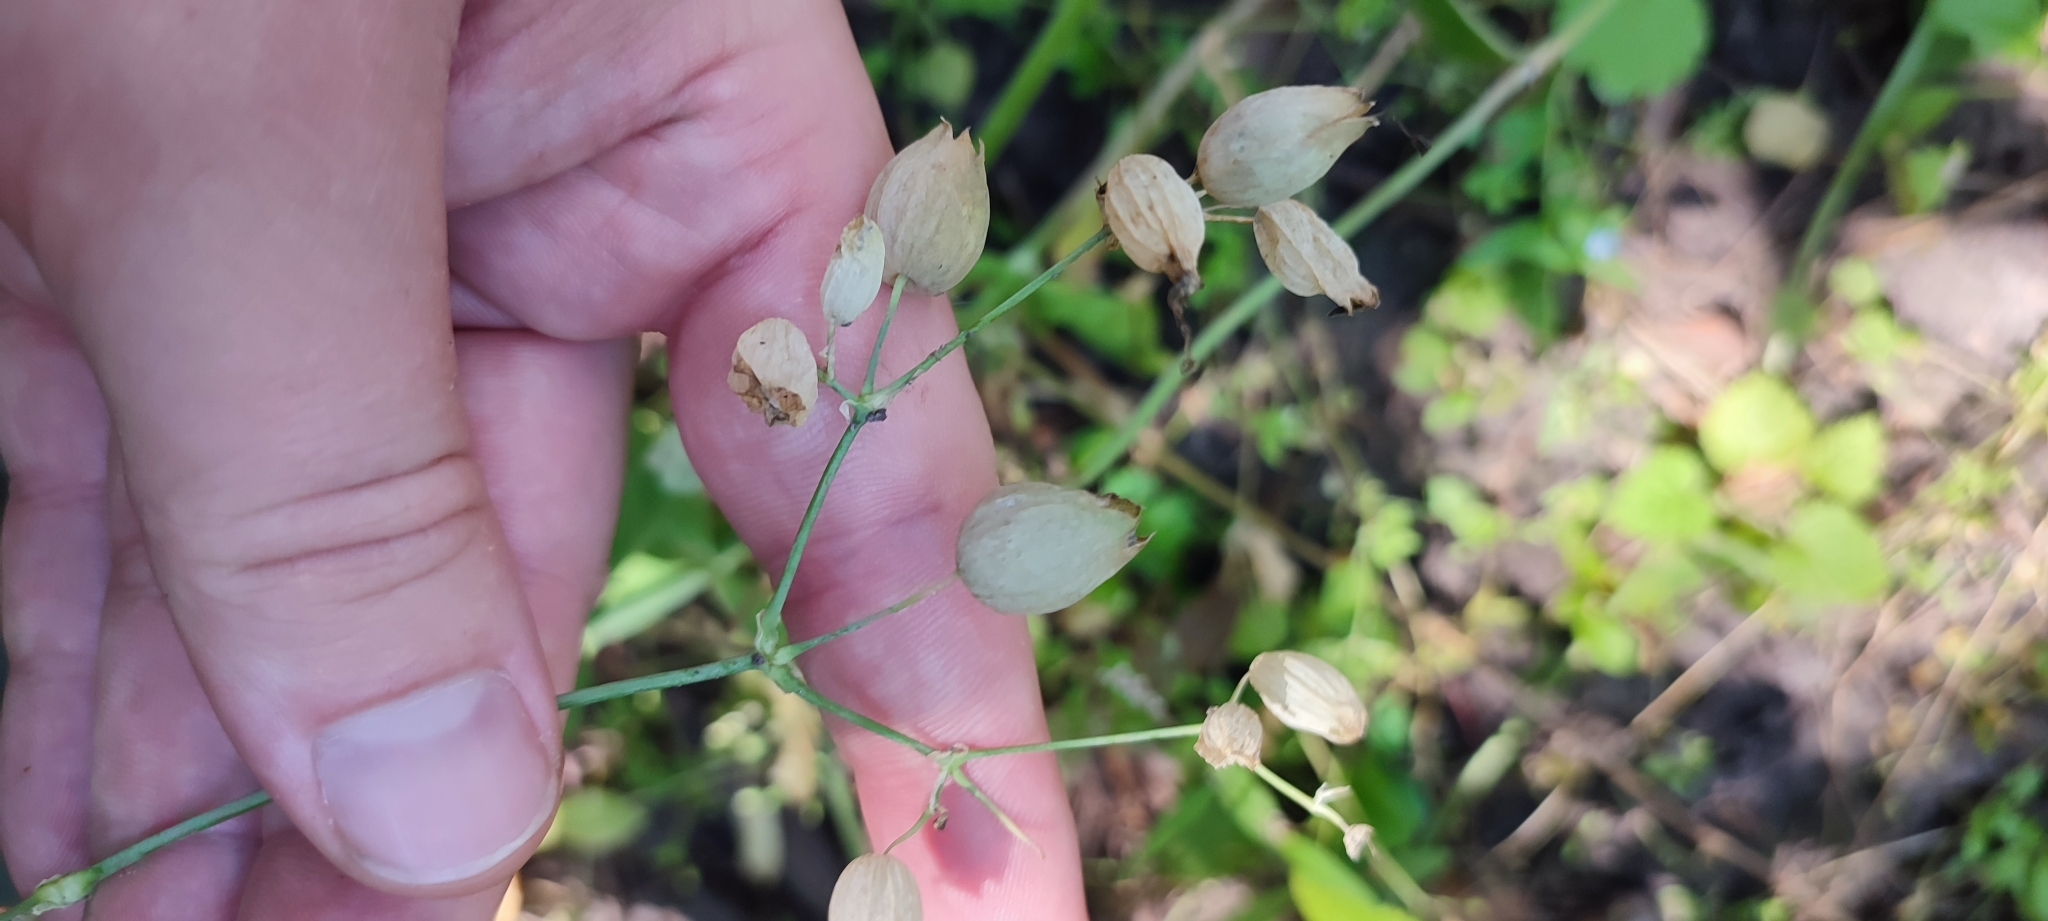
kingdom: Plantae
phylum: Tracheophyta
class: Magnoliopsida
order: Caryophyllales
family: Caryophyllaceae
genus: Silene
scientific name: Silene vulgaris
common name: Bladder campion
